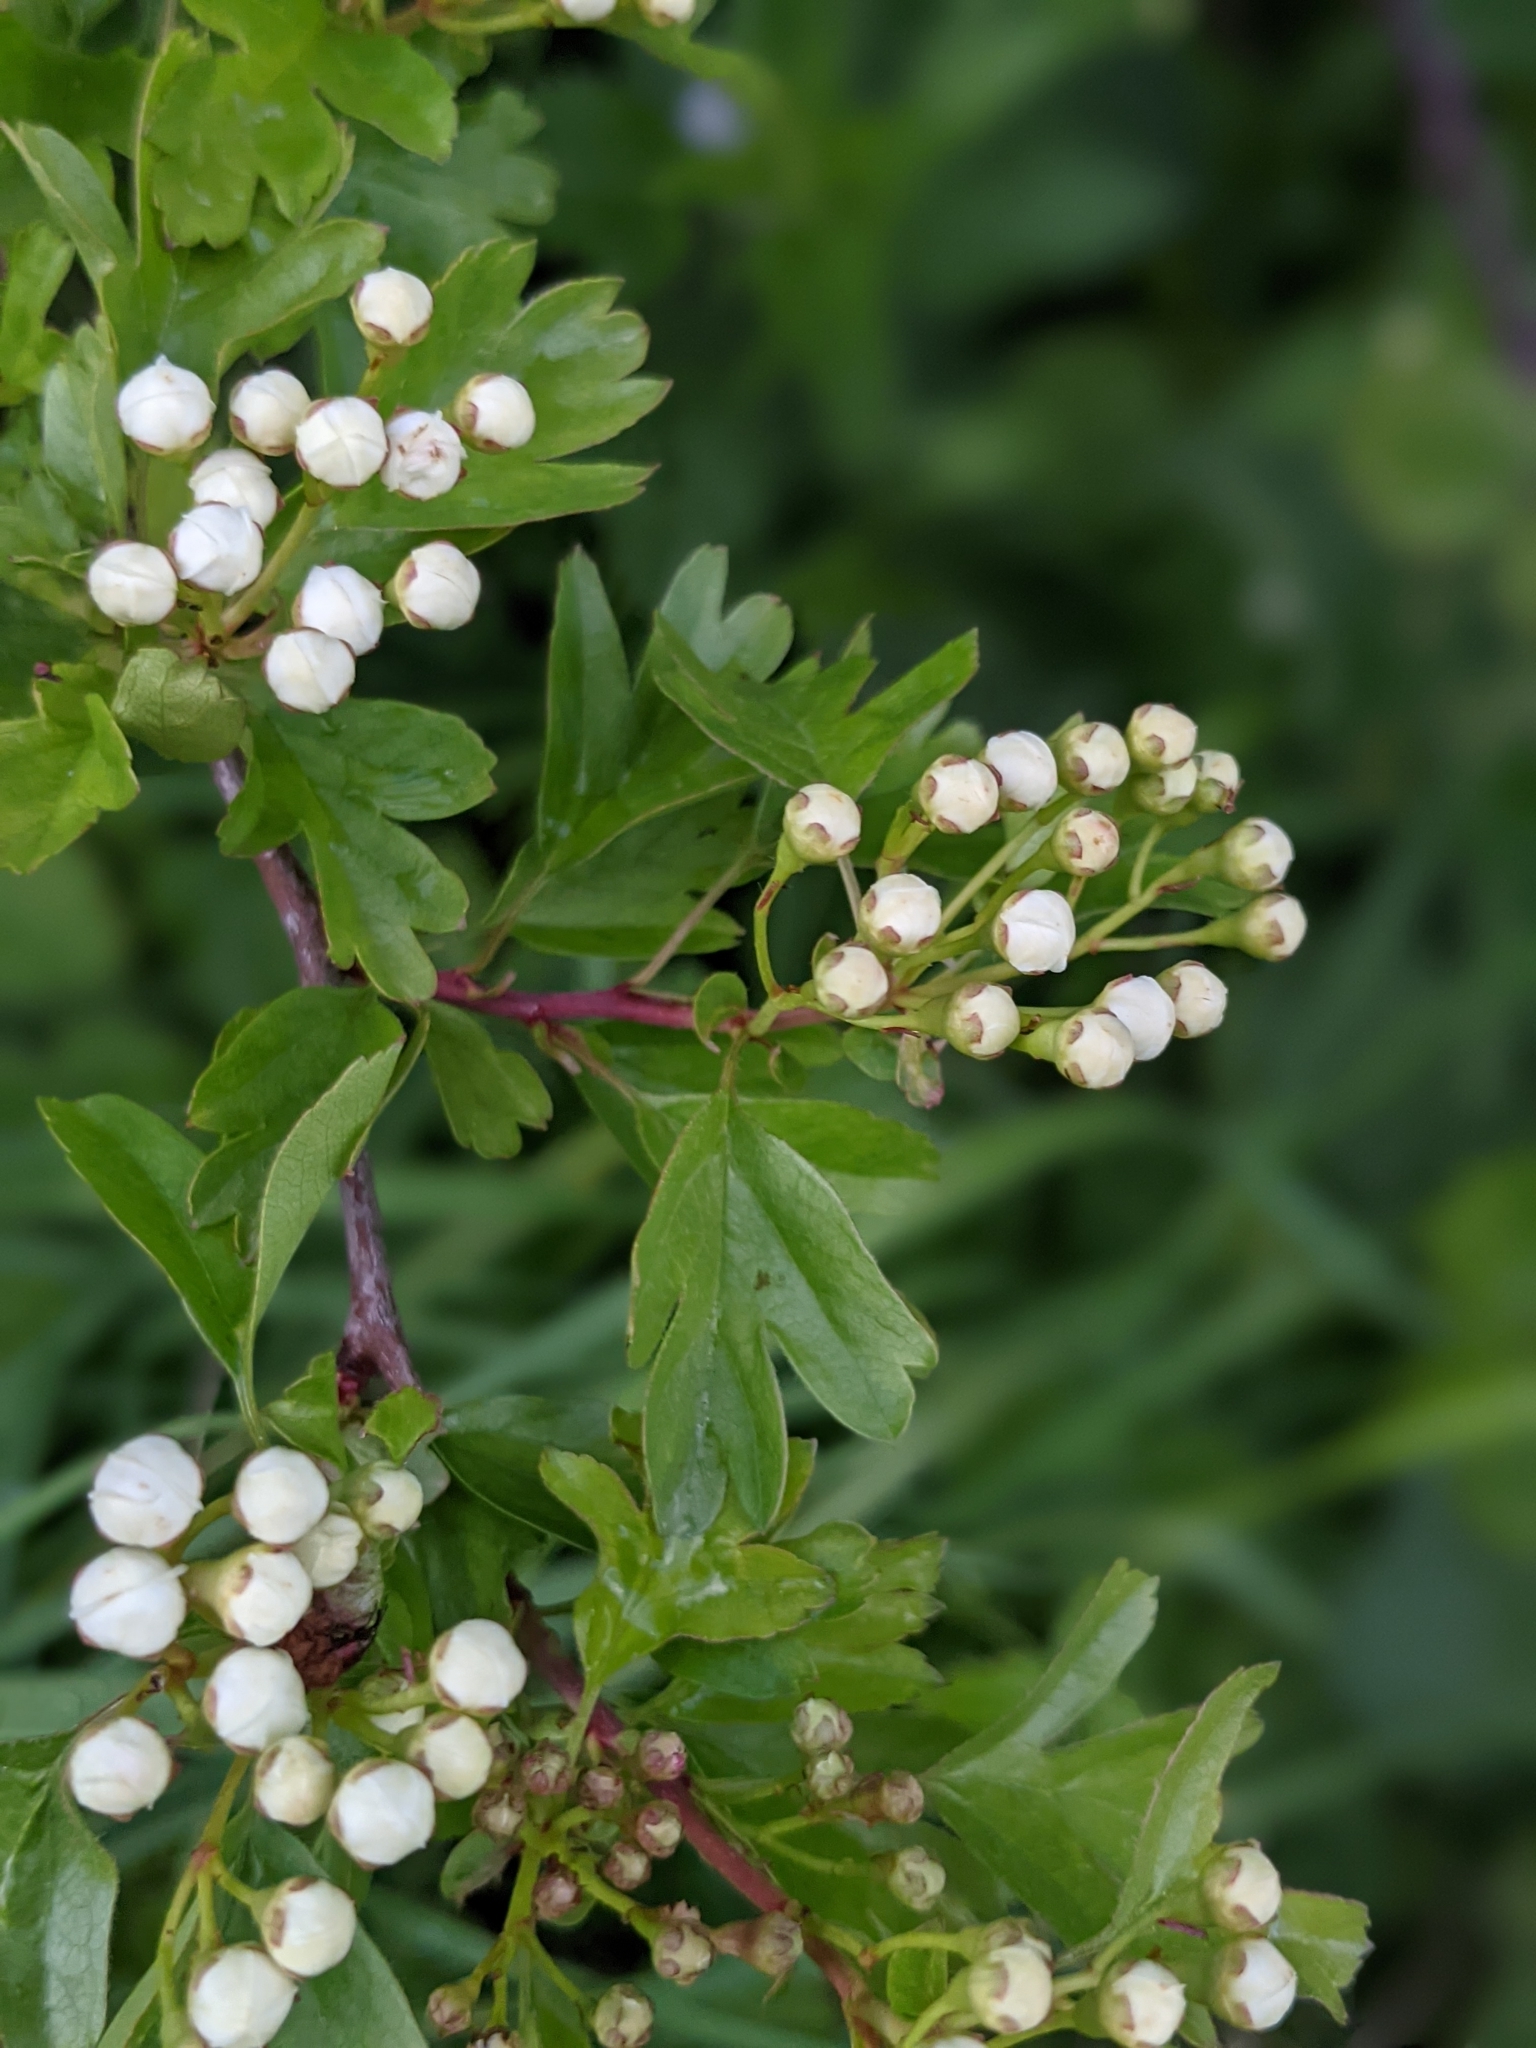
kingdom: Plantae
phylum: Tracheophyta
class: Magnoliopsida
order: Rosales
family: Rosaceae
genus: Crataegus
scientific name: Crataegus monogyna
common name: Hawthorn
